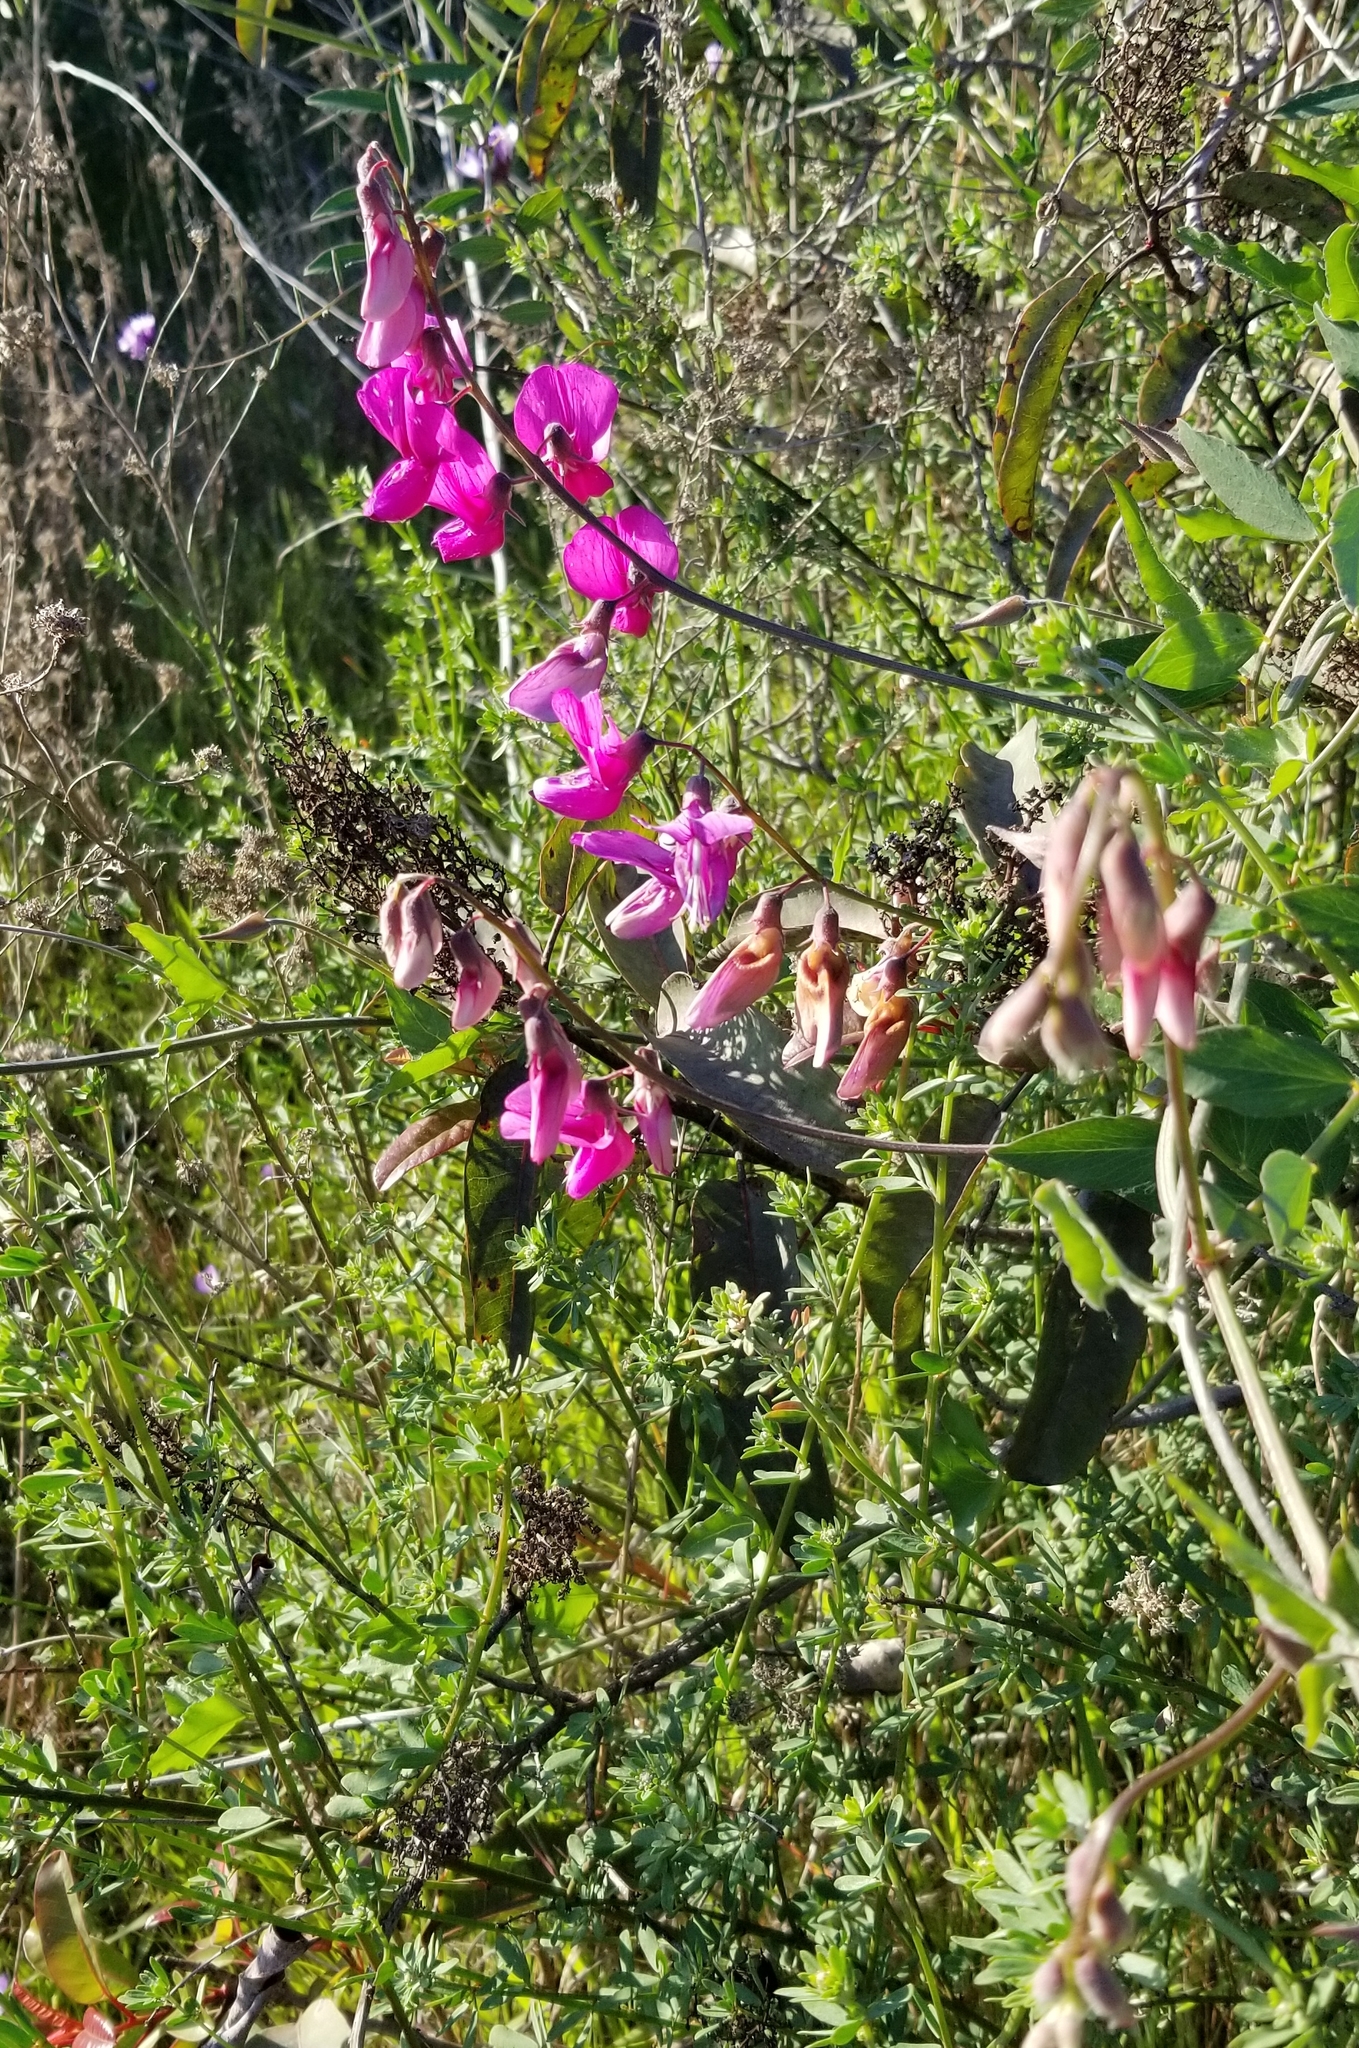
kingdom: Plantae
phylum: Tracheophyta
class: Magnoliopsida
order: Fabales
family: Fabaceae
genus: Lathyrus
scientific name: Lathyrus vestitus
